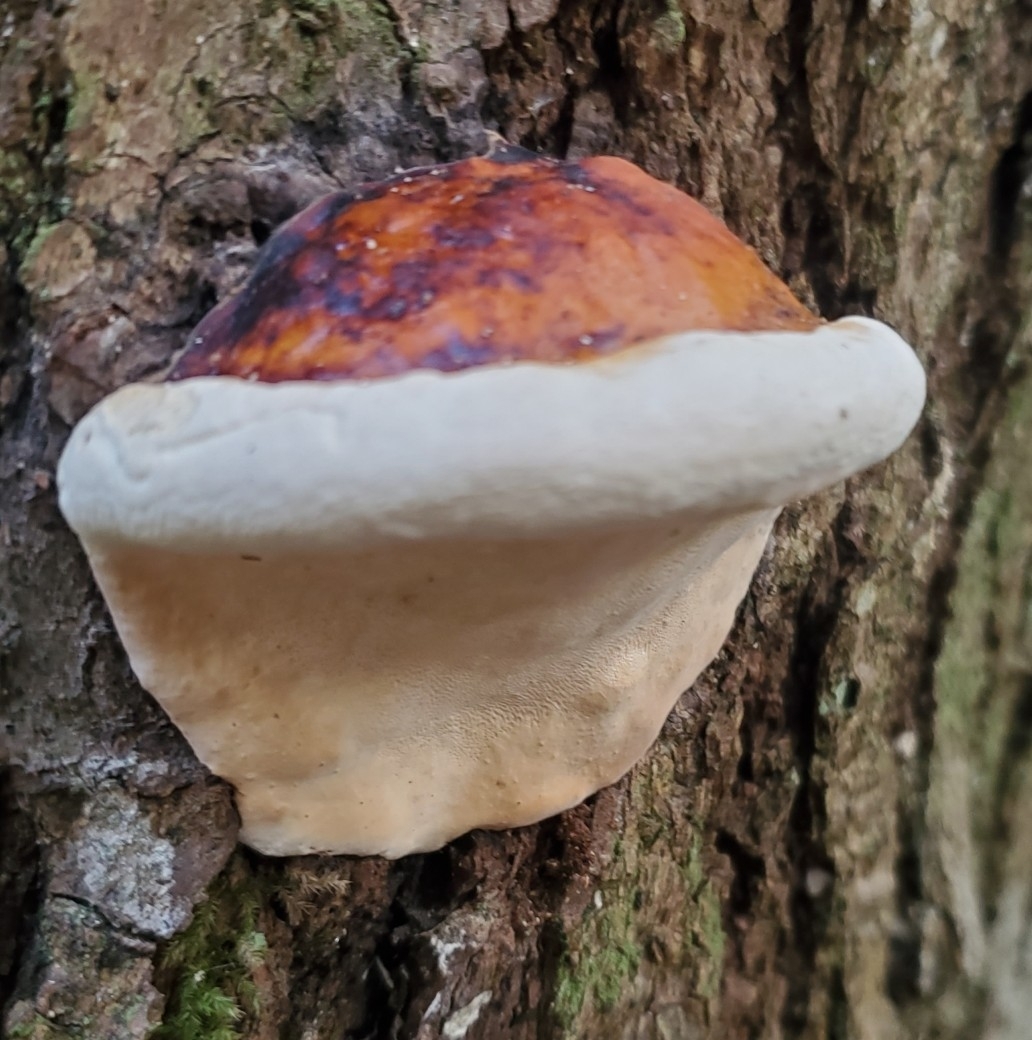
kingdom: Fungi
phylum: Basidiomycota
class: Agaricomycetes
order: Polyporales
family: Fomitopsidaceae
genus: Fomitopsis
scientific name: Fomitopsis mounceae
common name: Northern red belt
